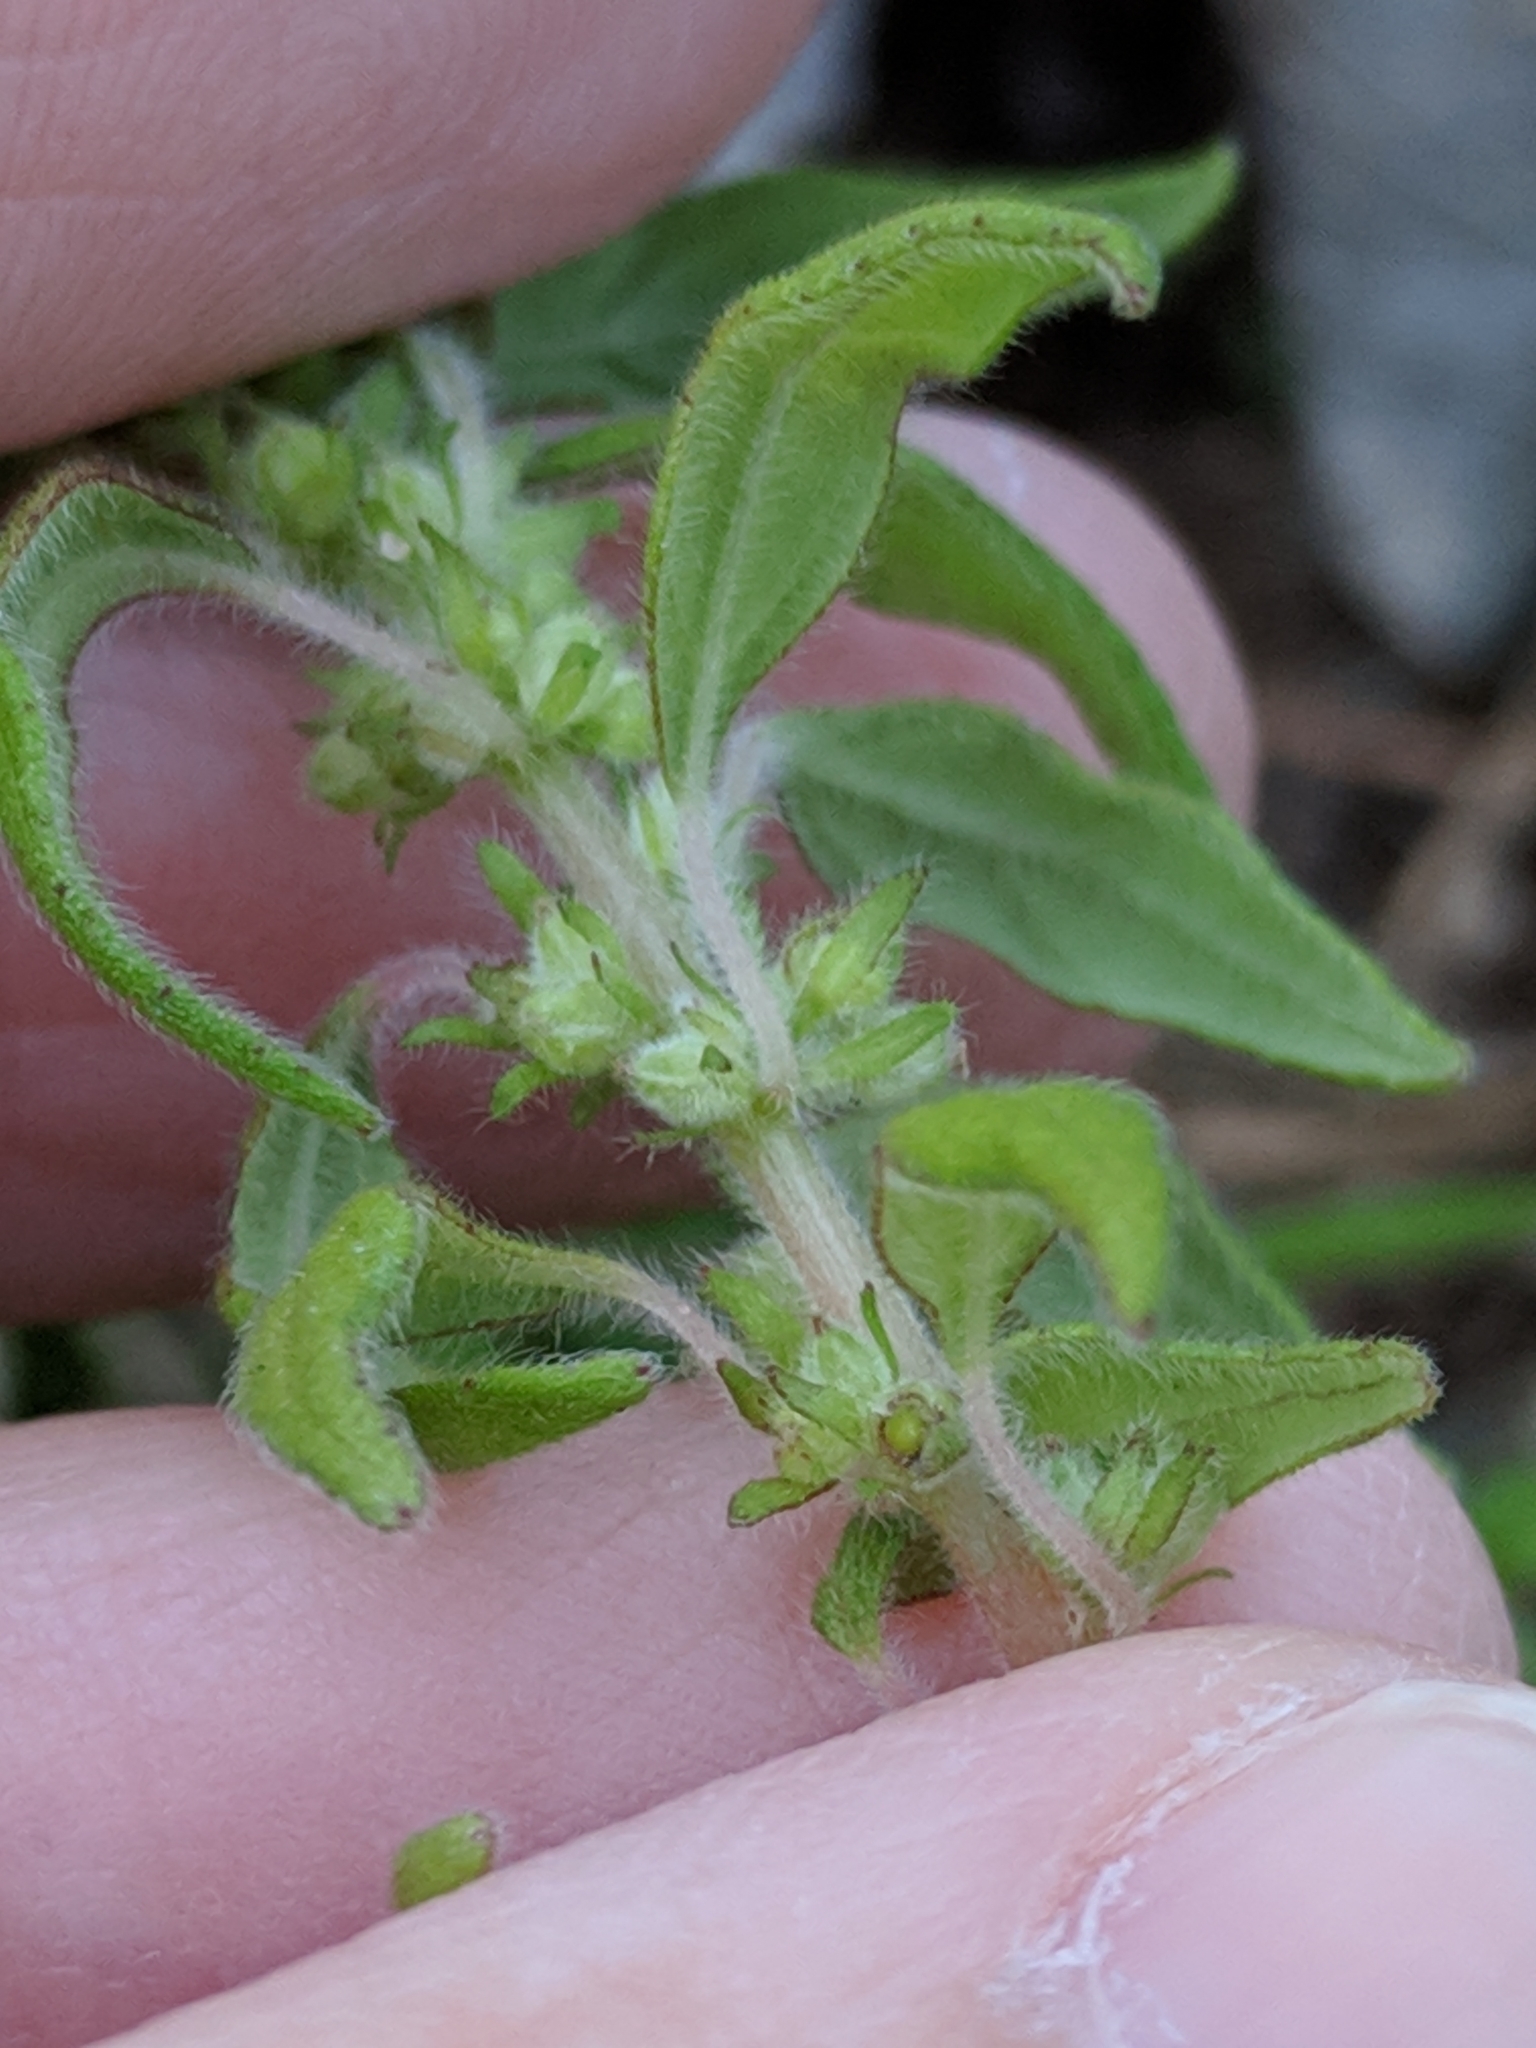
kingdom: Plantae
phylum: Tracheophyta
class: Magnoliopsida
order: Rosales
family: Urticaceae
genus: Parietaria
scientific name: Parietaria pensylvanica
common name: Pennsylvania pellitory
